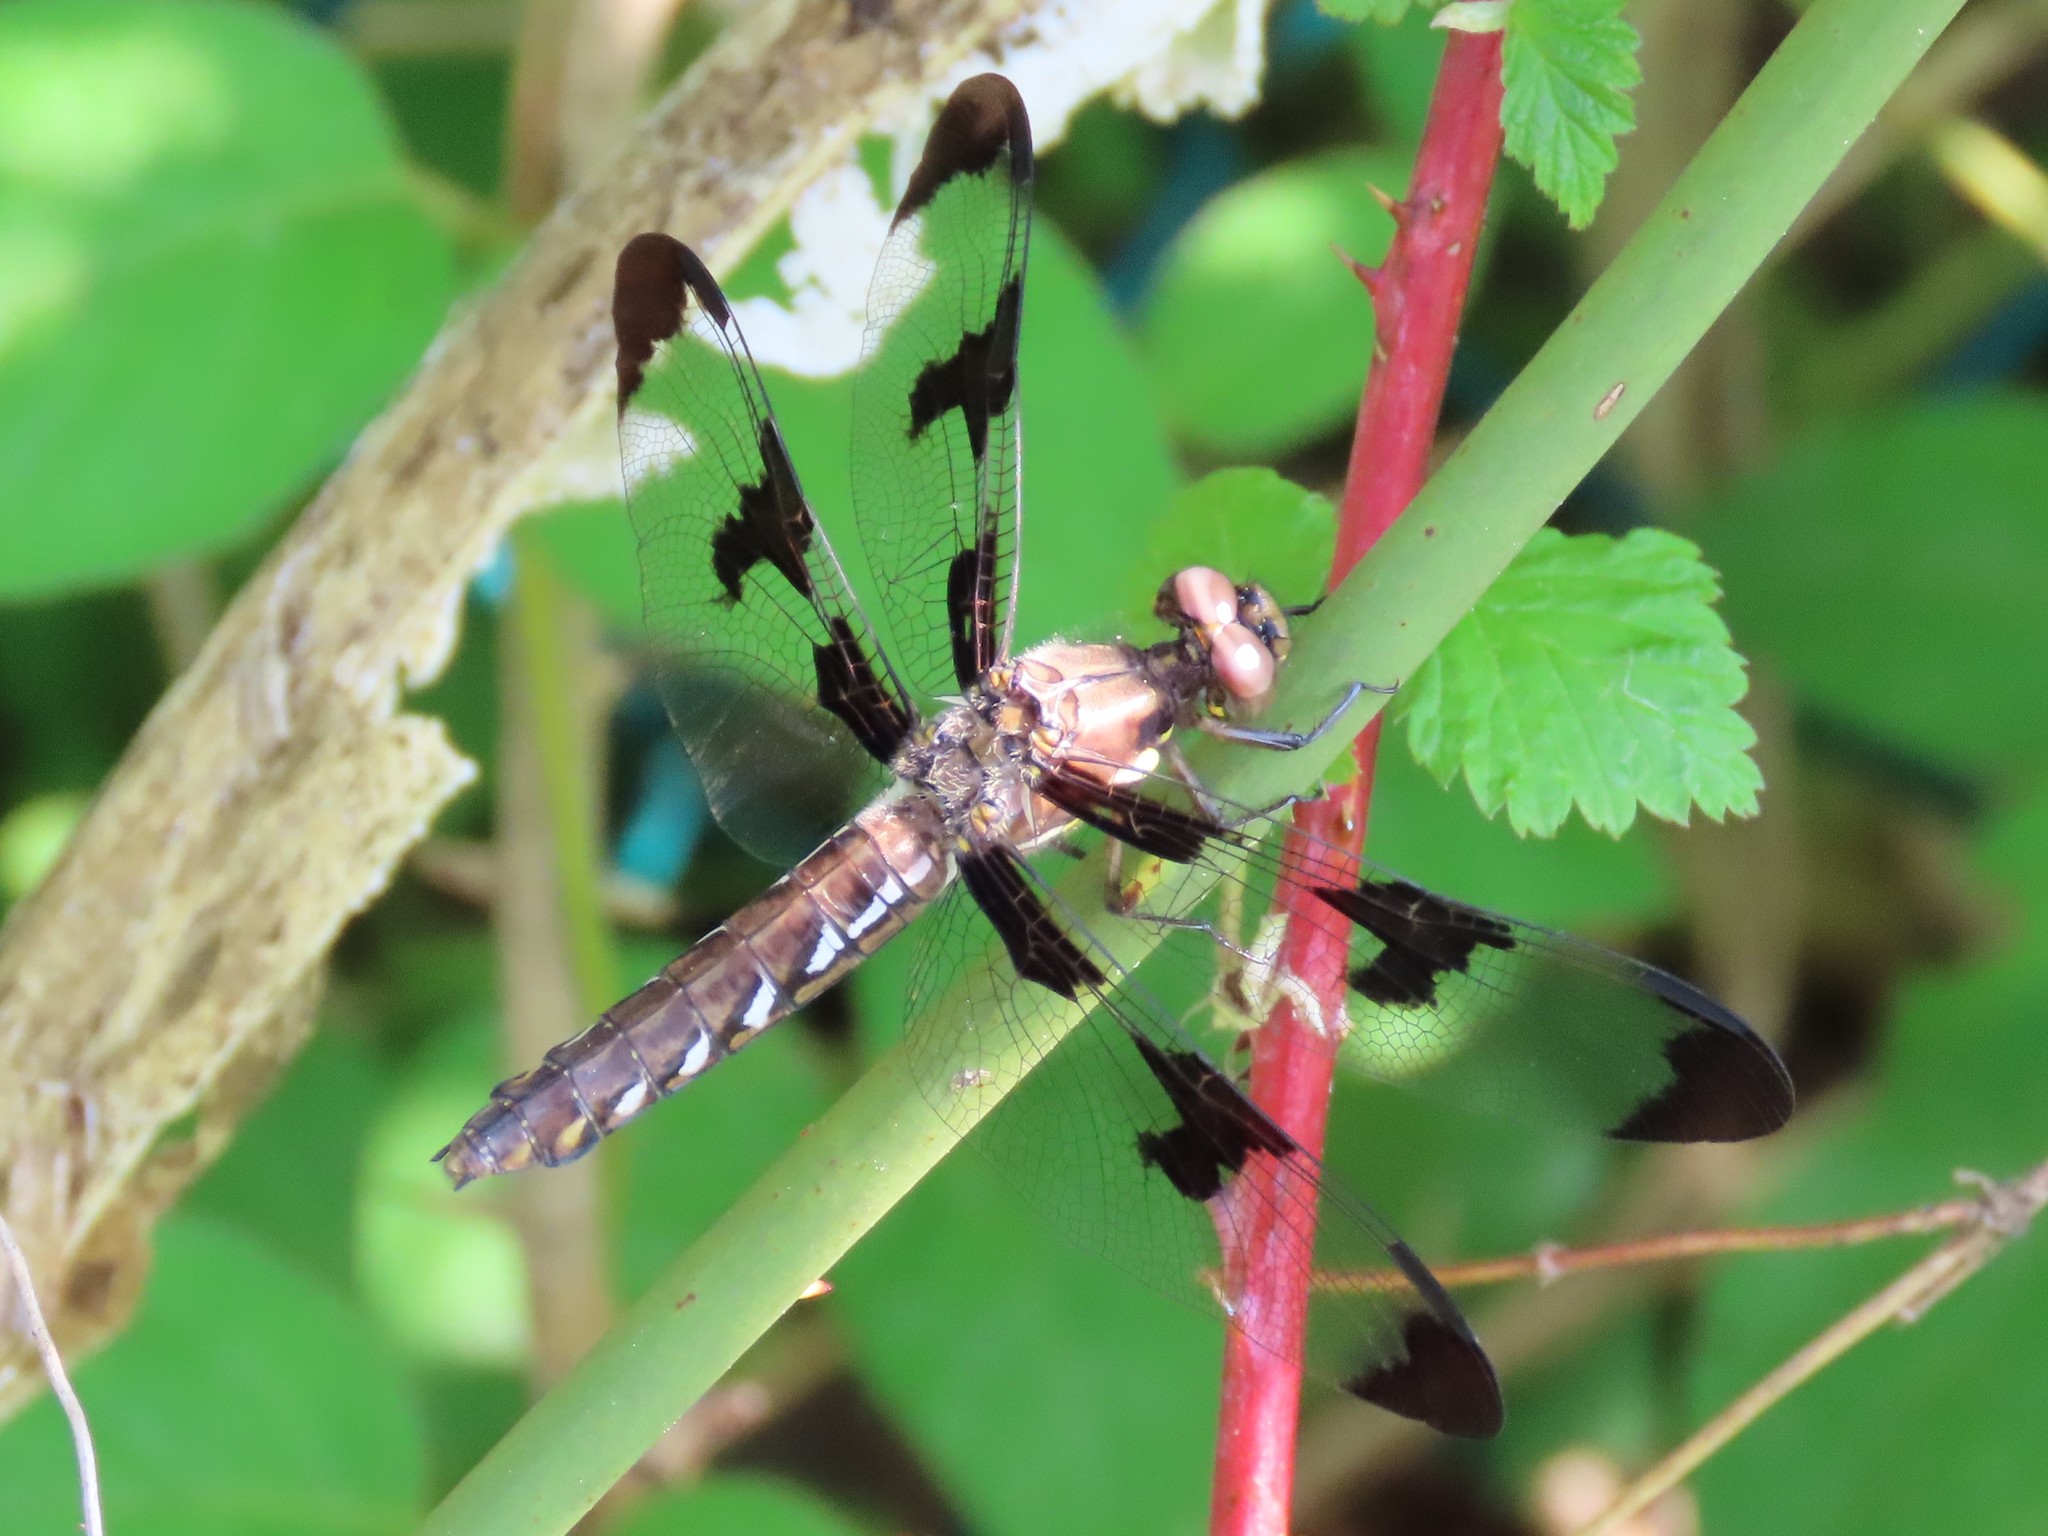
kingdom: Animalia
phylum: Arthropoda
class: Insecta
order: Odonata
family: Libellulidae
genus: Plathemis
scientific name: Plathemis lydia
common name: Common whitetail
